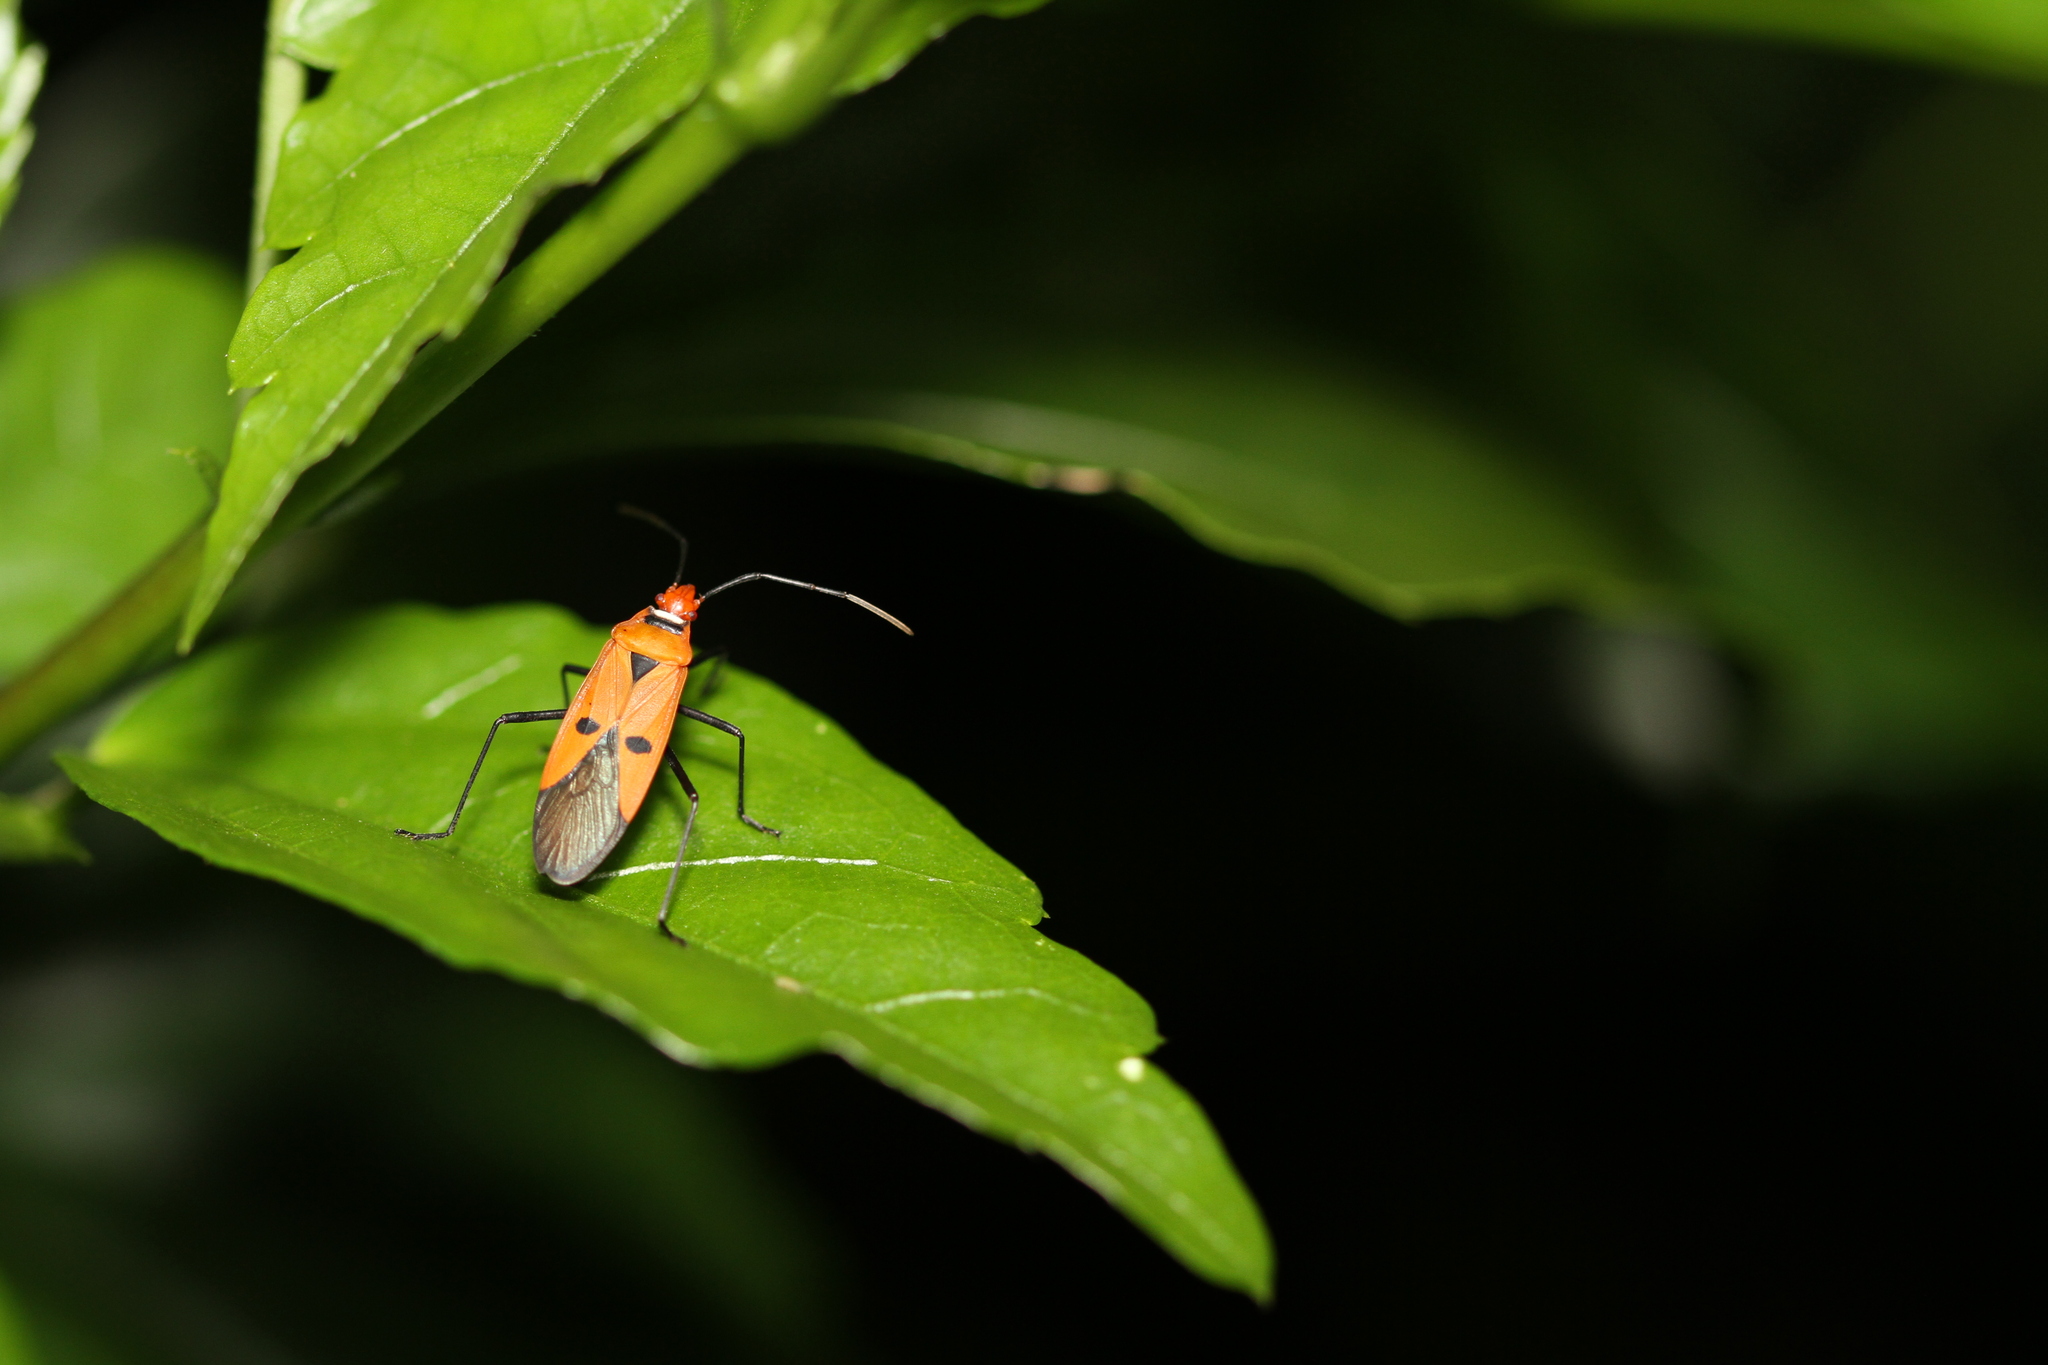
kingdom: Animalia
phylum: Arthropoda
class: Insecta
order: Hemiptera
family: Pyrrhocoridae
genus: Dysdercus
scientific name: Dysdercus cingulatus
